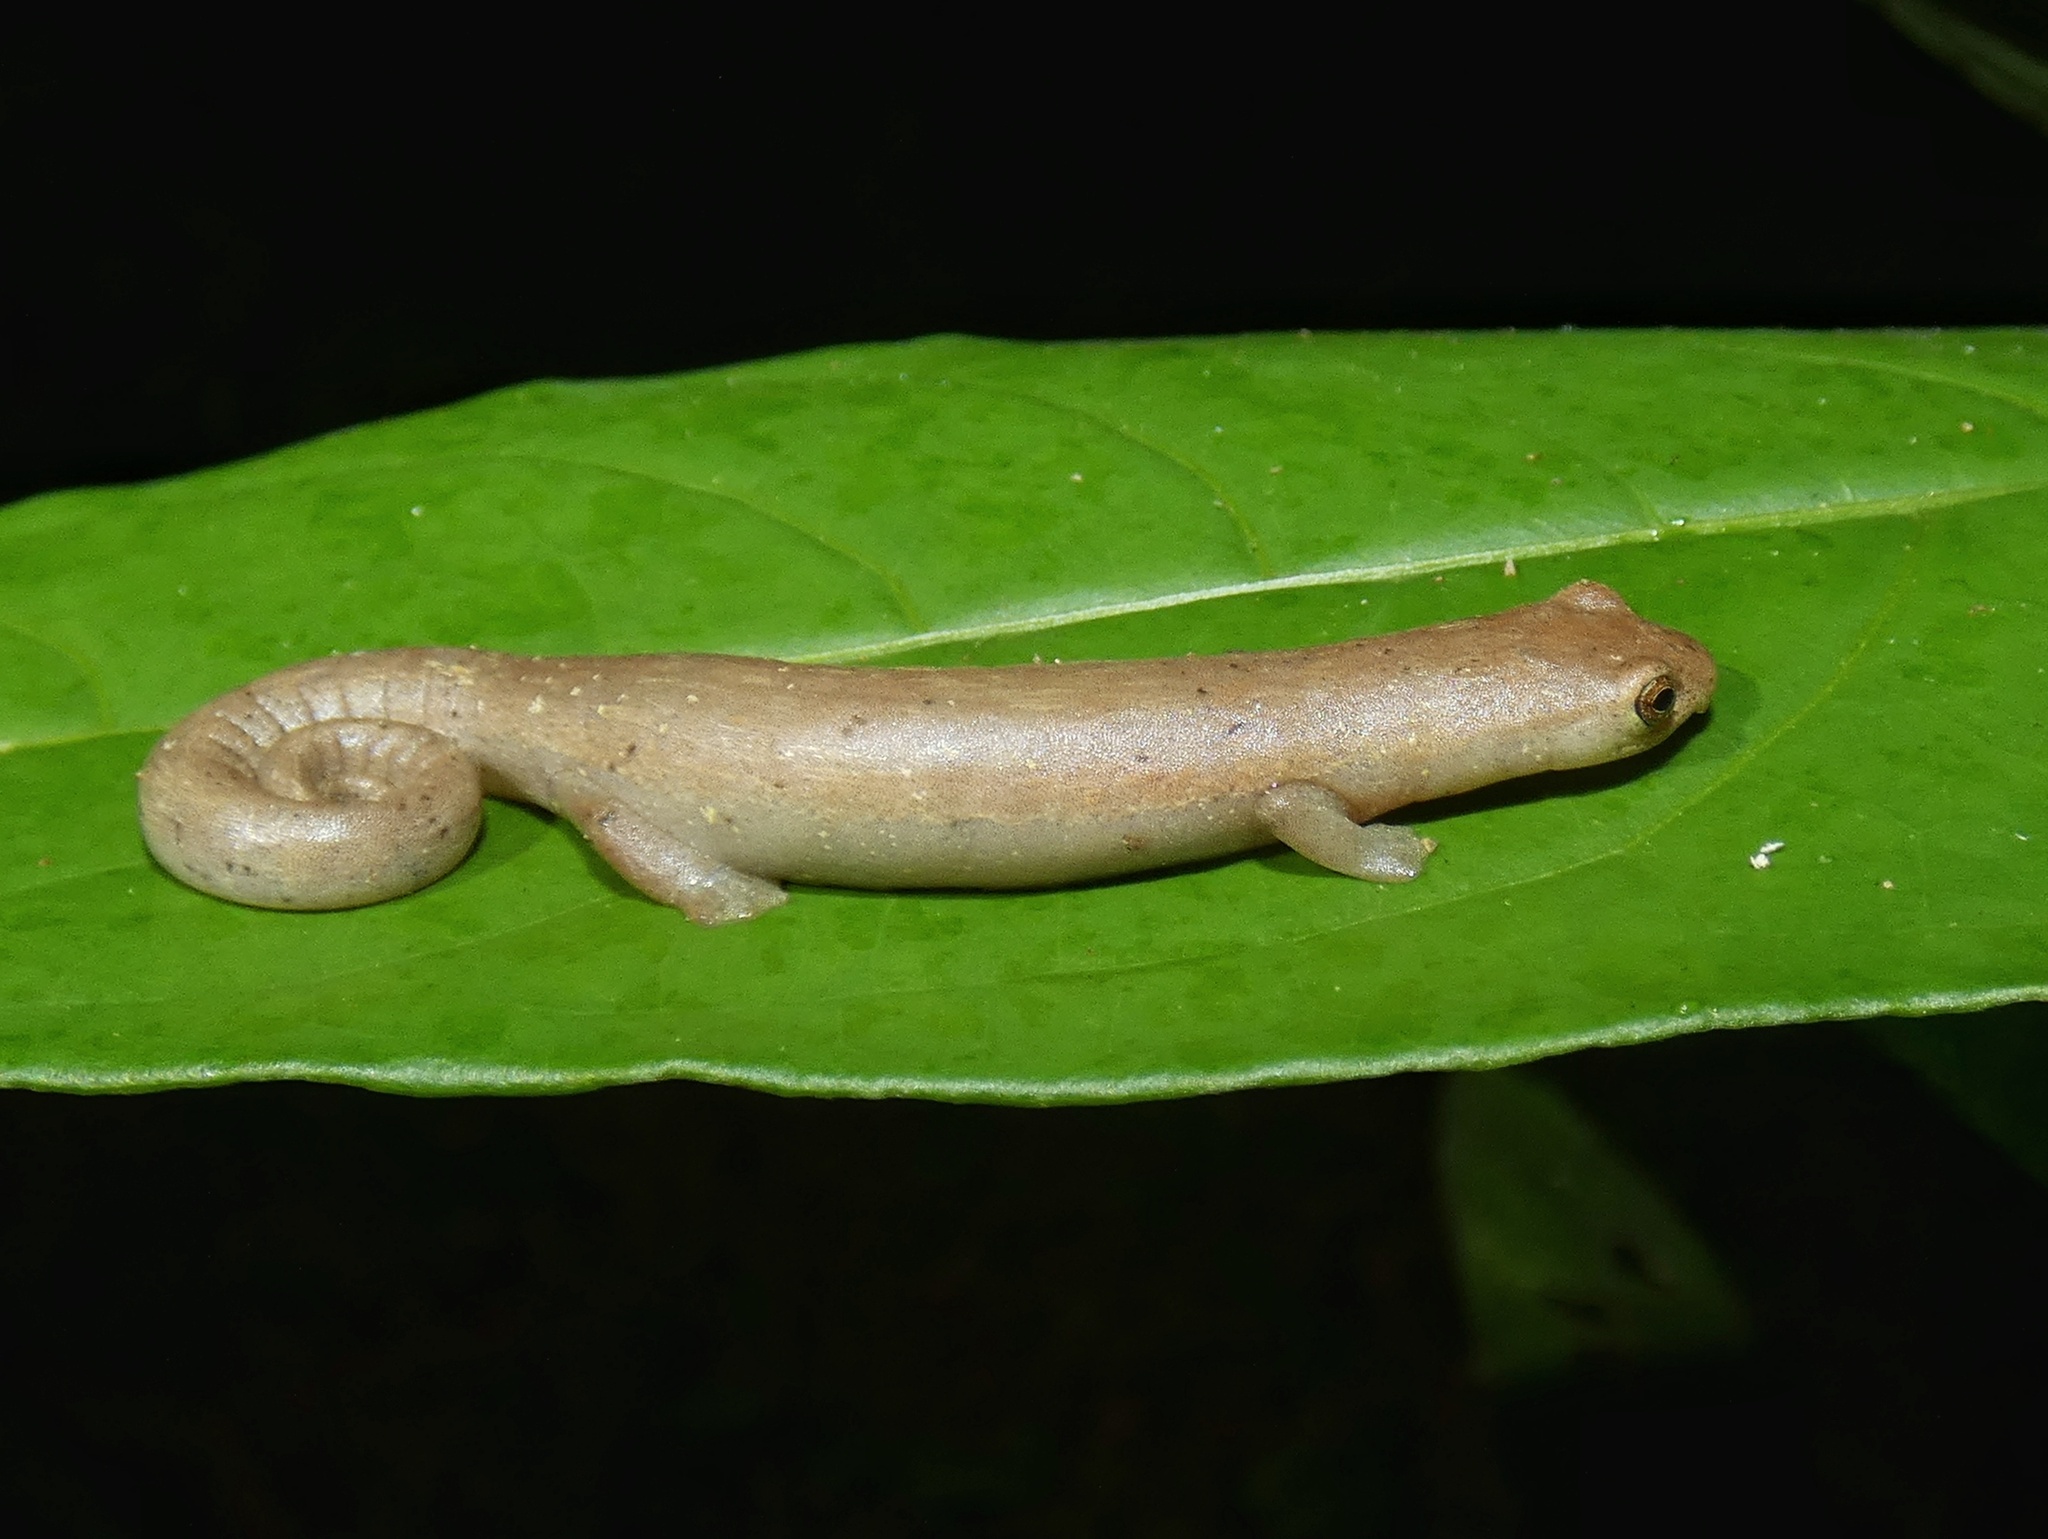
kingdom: Animalia
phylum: Chordata
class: Amphibia
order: Caudata
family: Plethodontidae
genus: Bolitoglossa
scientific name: Bolitoglossa cuna
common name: Camp sasardi salamander
